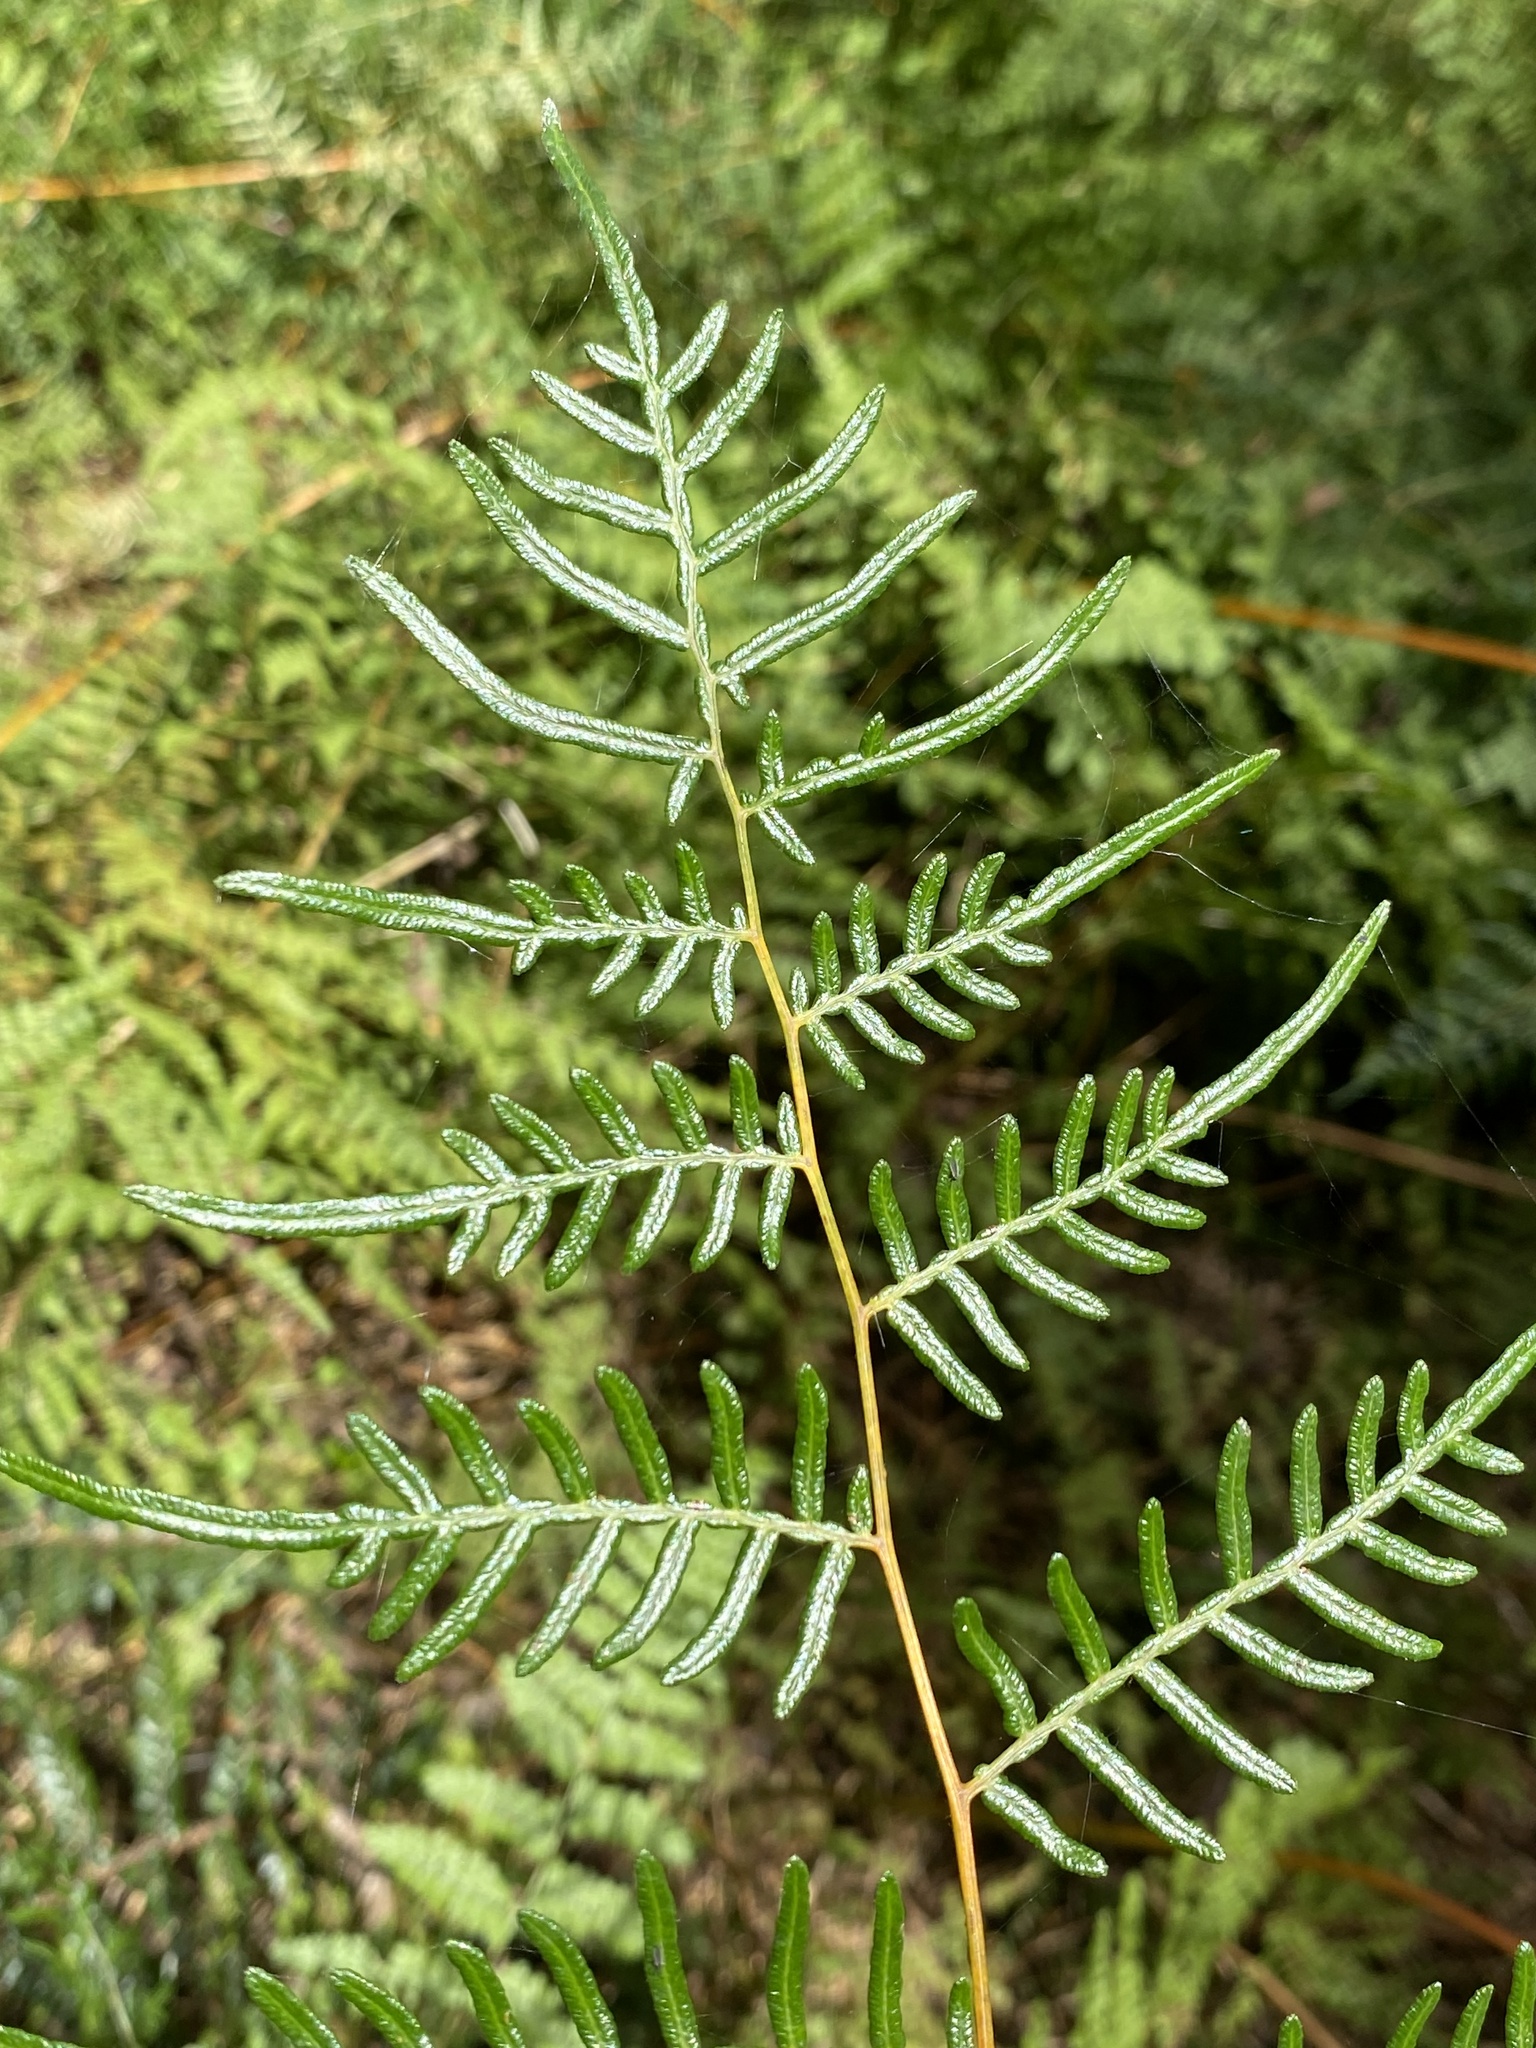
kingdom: Plantae
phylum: Tracheophyta
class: Polypodiopsida
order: Polypodiales
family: Dennstaedtiaceae
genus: Pteridium
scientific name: Pteridium esculentum
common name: Bracken fern
